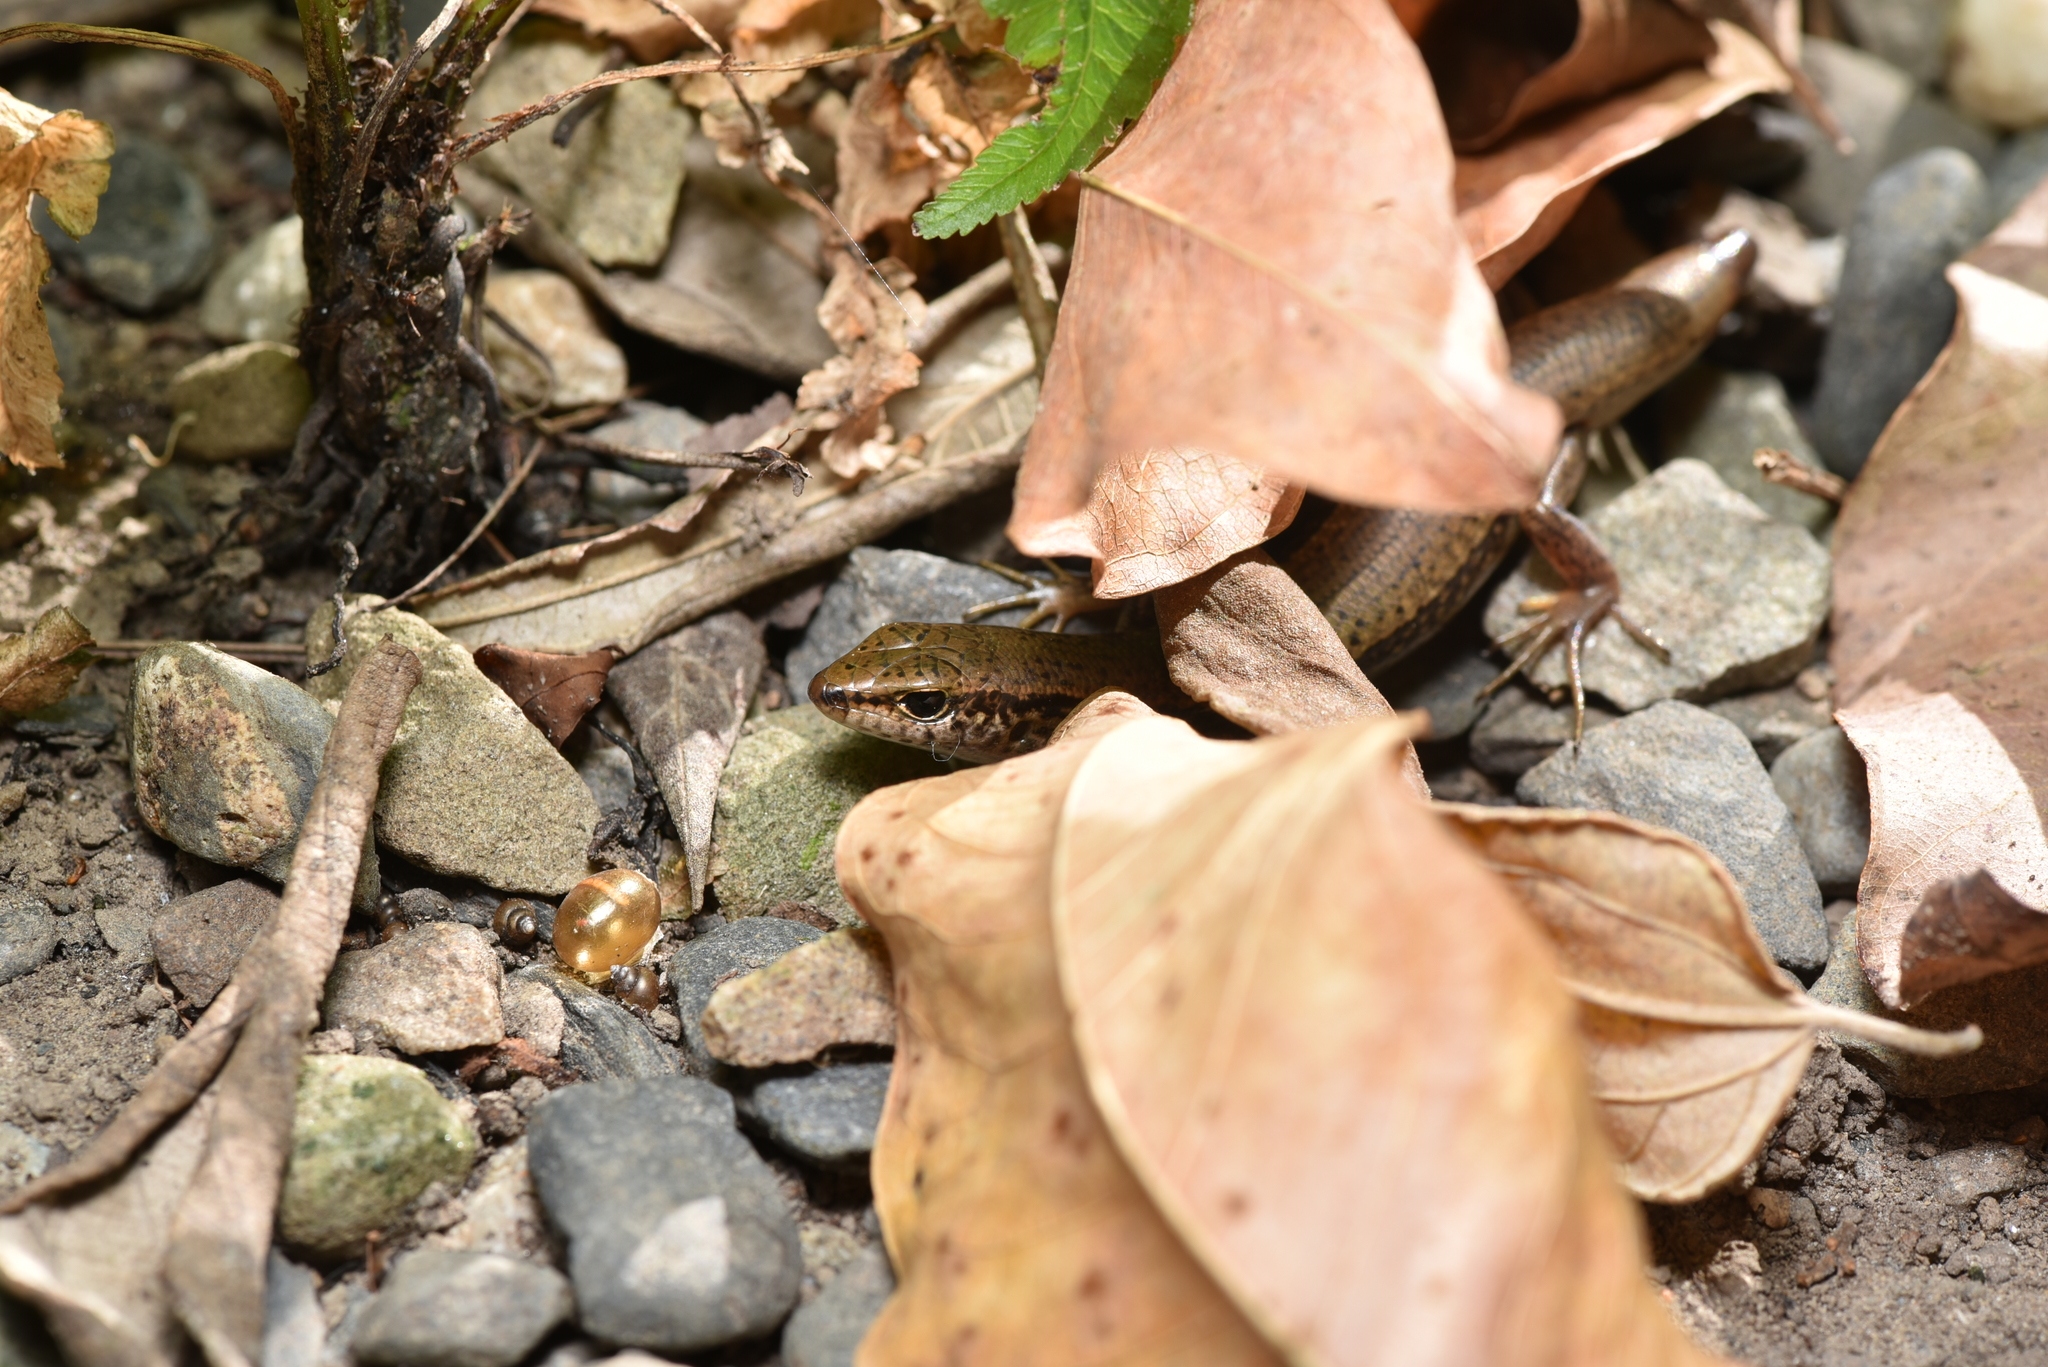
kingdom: Animalia
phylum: Chordata
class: Squamata
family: Scincidae
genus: Sphenomorphus
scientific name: Sphenomorphus indicus
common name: Himalayan forest skink
